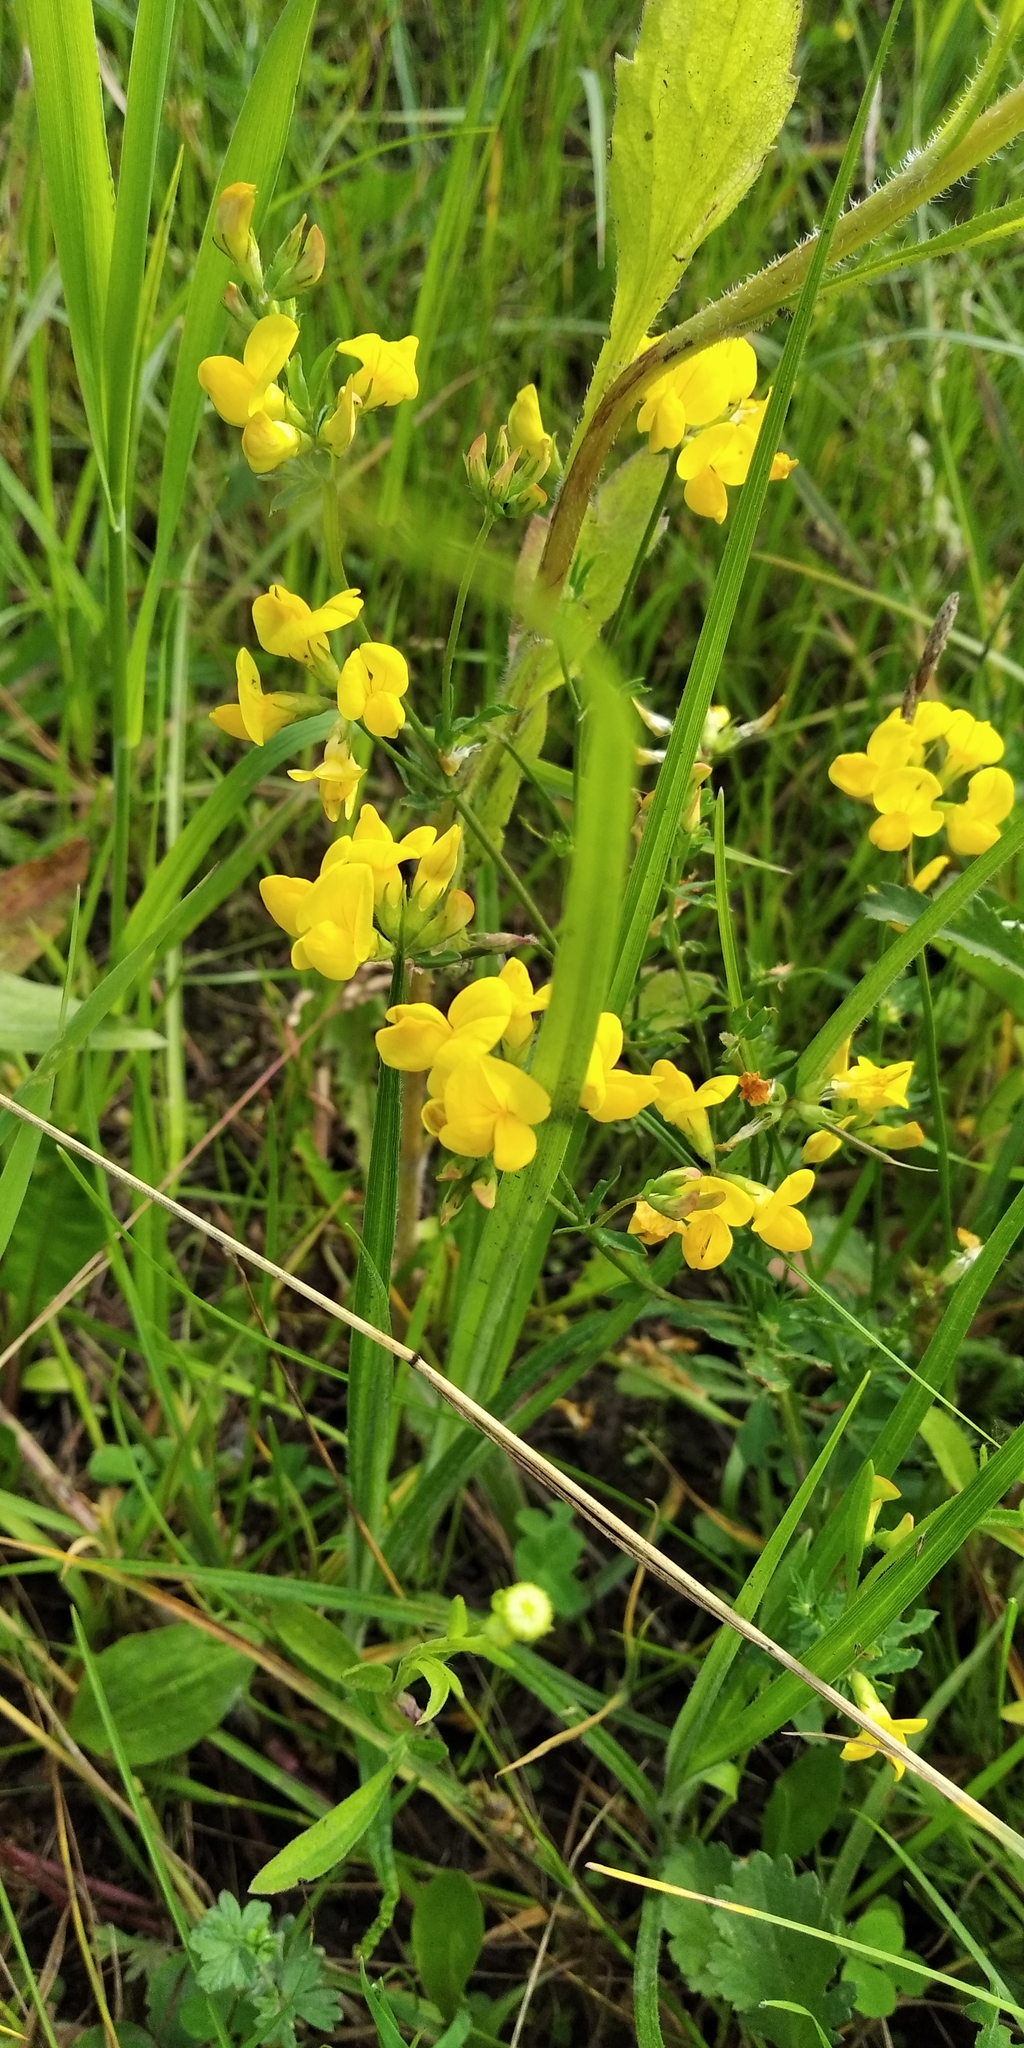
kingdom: Plantae
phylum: Tracheophyta
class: Magnoliopsida
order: Fabales
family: Fabaceae
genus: Lotus
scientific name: Lotus corniculatus
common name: Common bird's-foot-trefoil
